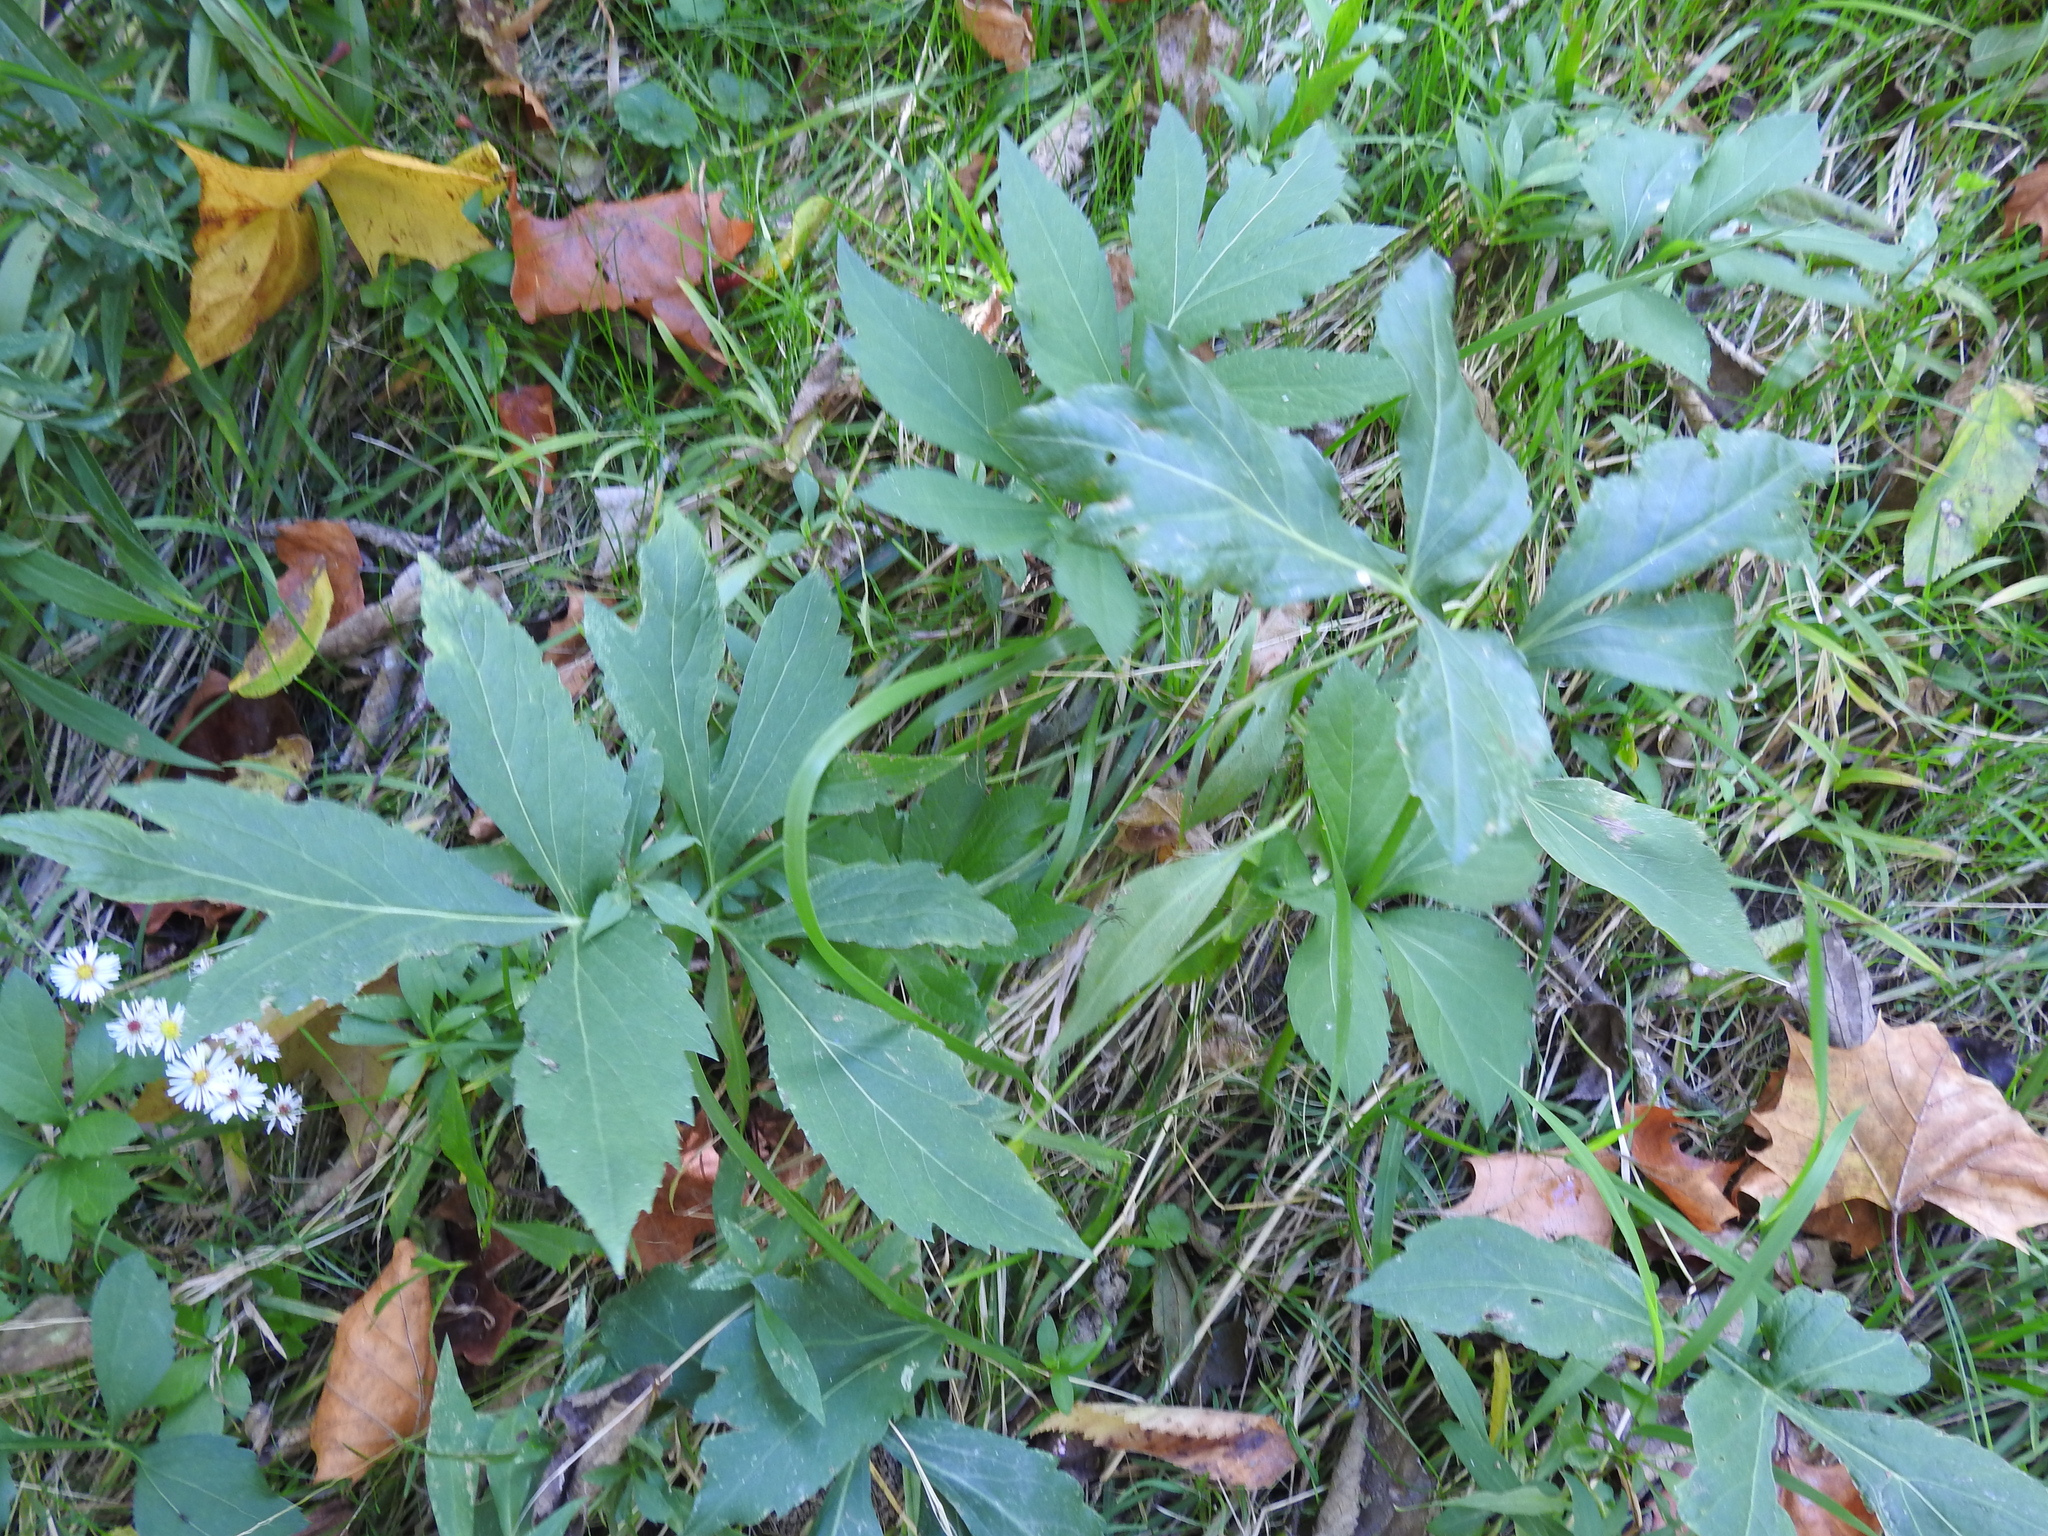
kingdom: Plantae
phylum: Tracheophyta
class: Magnoliopsida
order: Asterales
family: Asteraceae
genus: Rudbeckia
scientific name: Rudbeckia laciniata
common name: Coneflower
